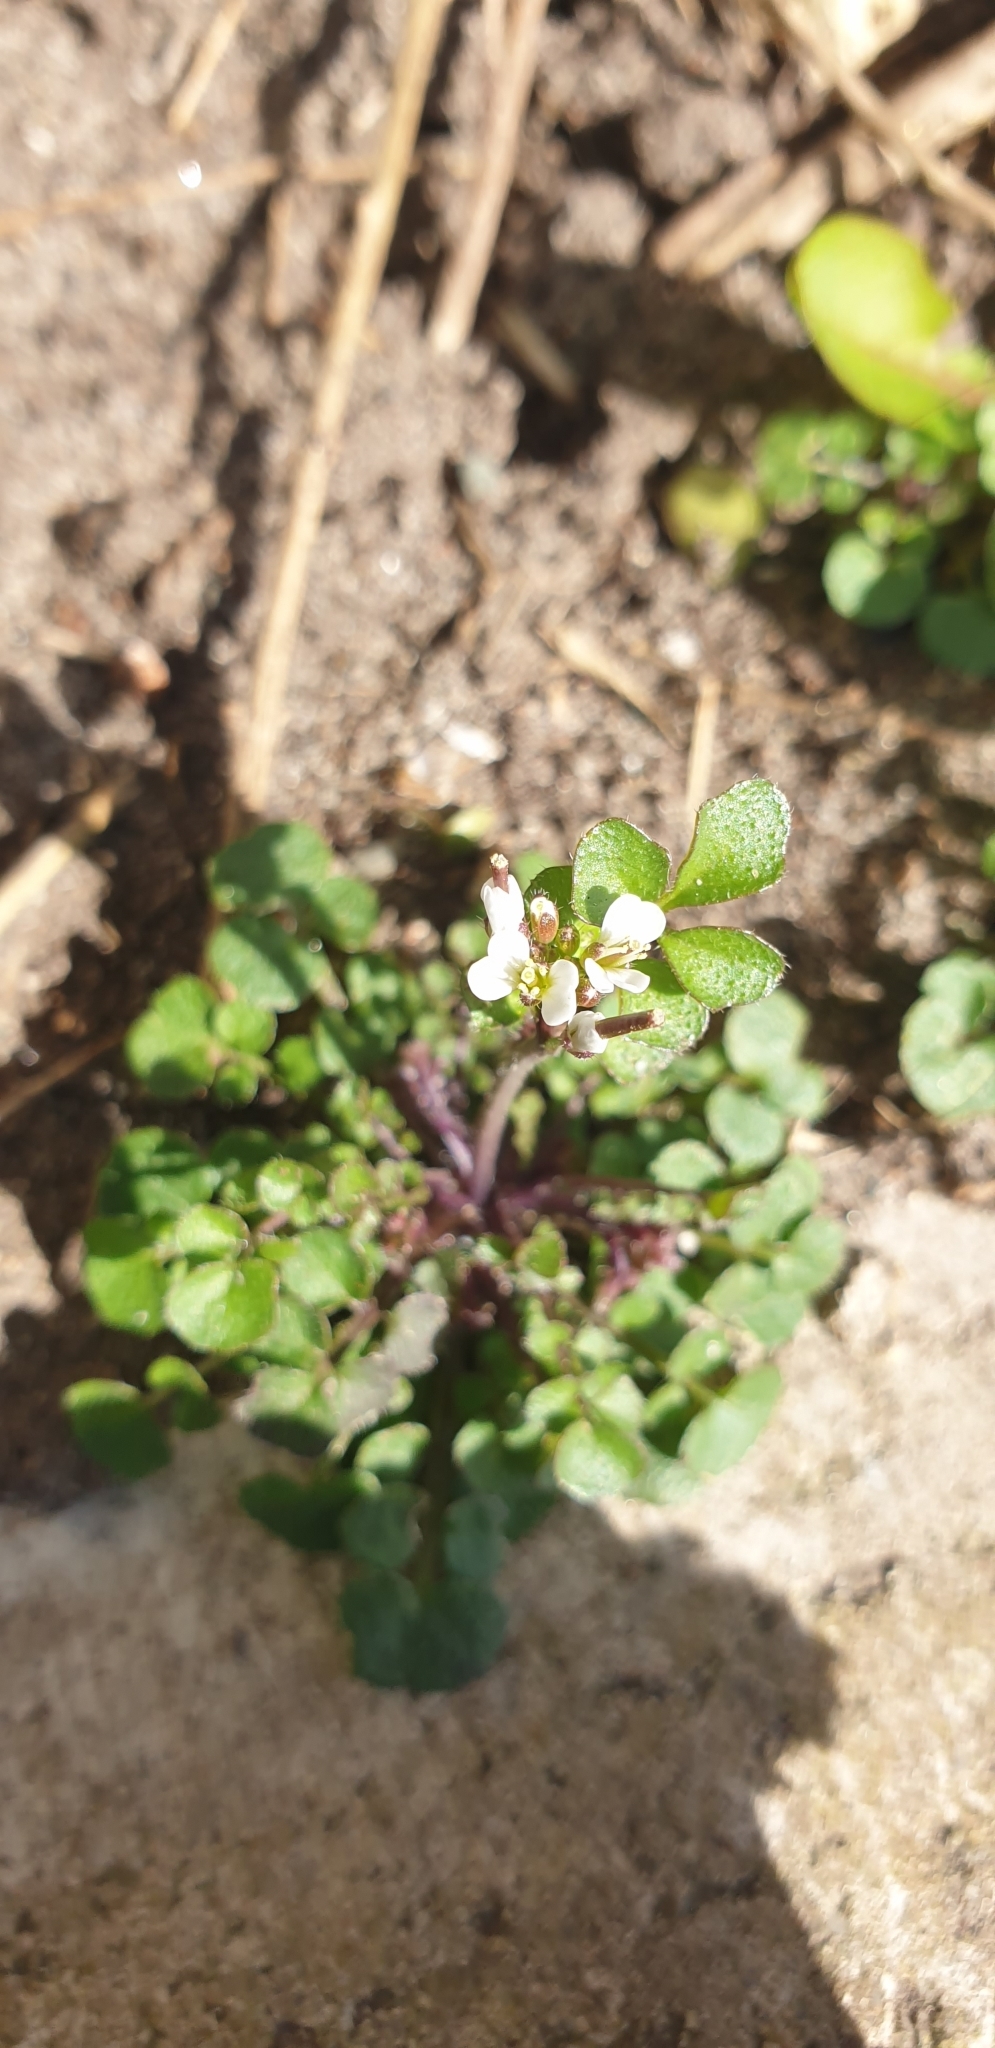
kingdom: Plantae
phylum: Tracheophyta
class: Magnoliopsida
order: Brassicales
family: Brassicaceae
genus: Cardamine
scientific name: Cardamine hirsuta
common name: Hairy bittercress
